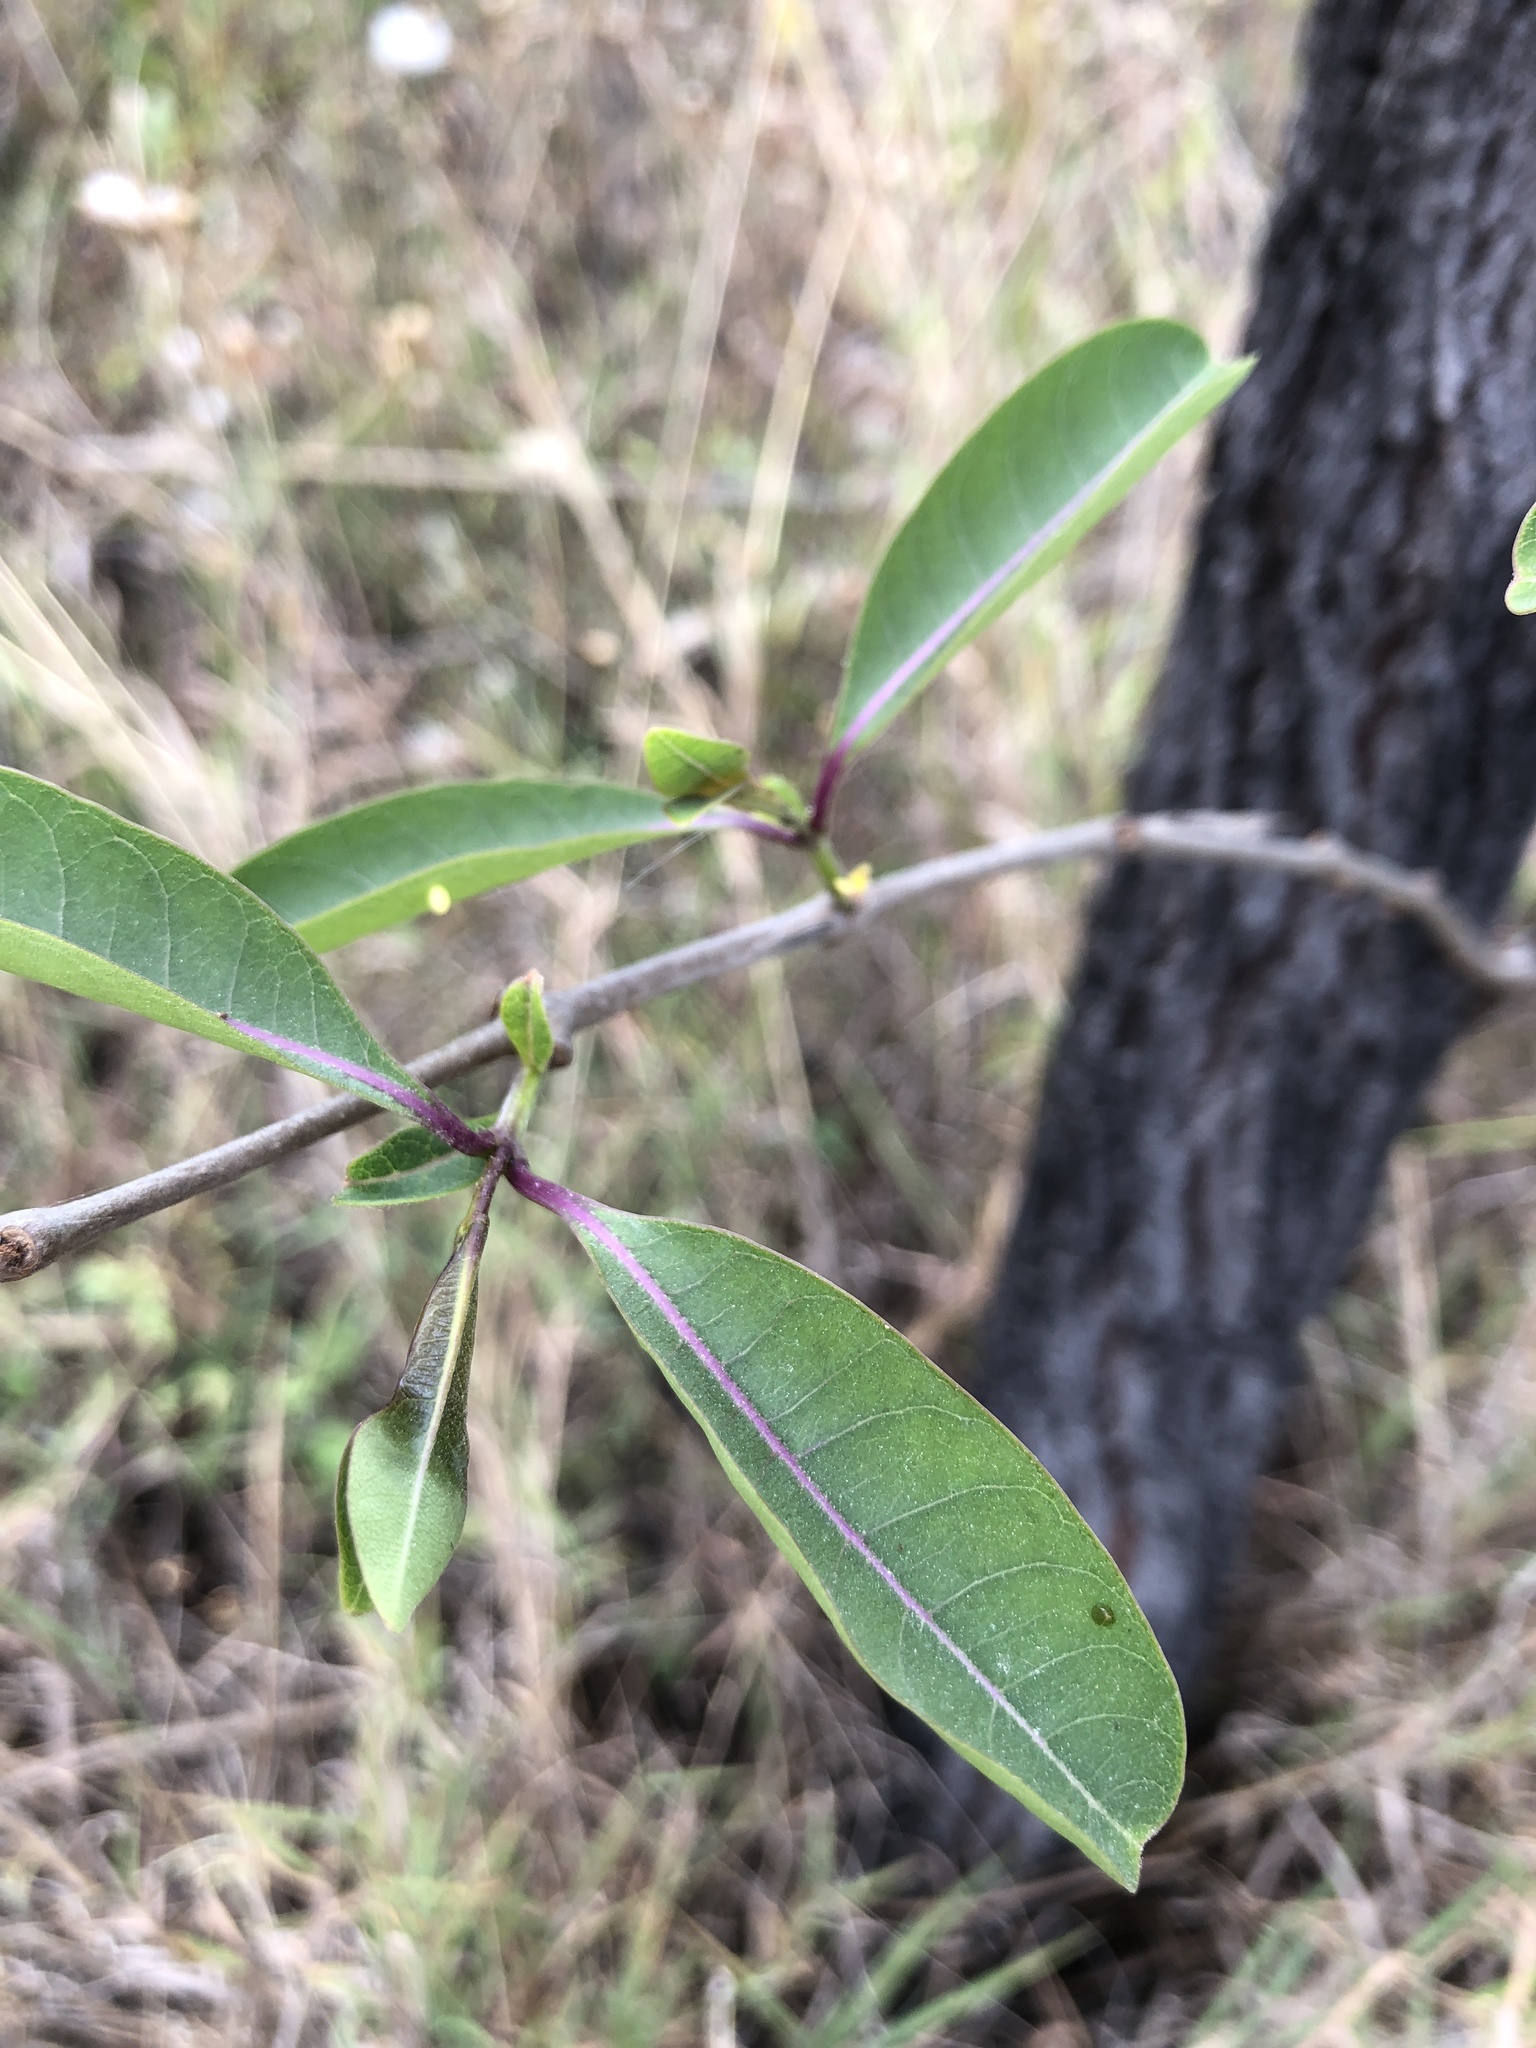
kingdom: Plantae
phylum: Tracheophyta
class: Magnoliopsida
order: Gentianales
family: Apocynaceae
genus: Cryptostegia
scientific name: Cryptostegia grandiflora
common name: Palay rubbervine
